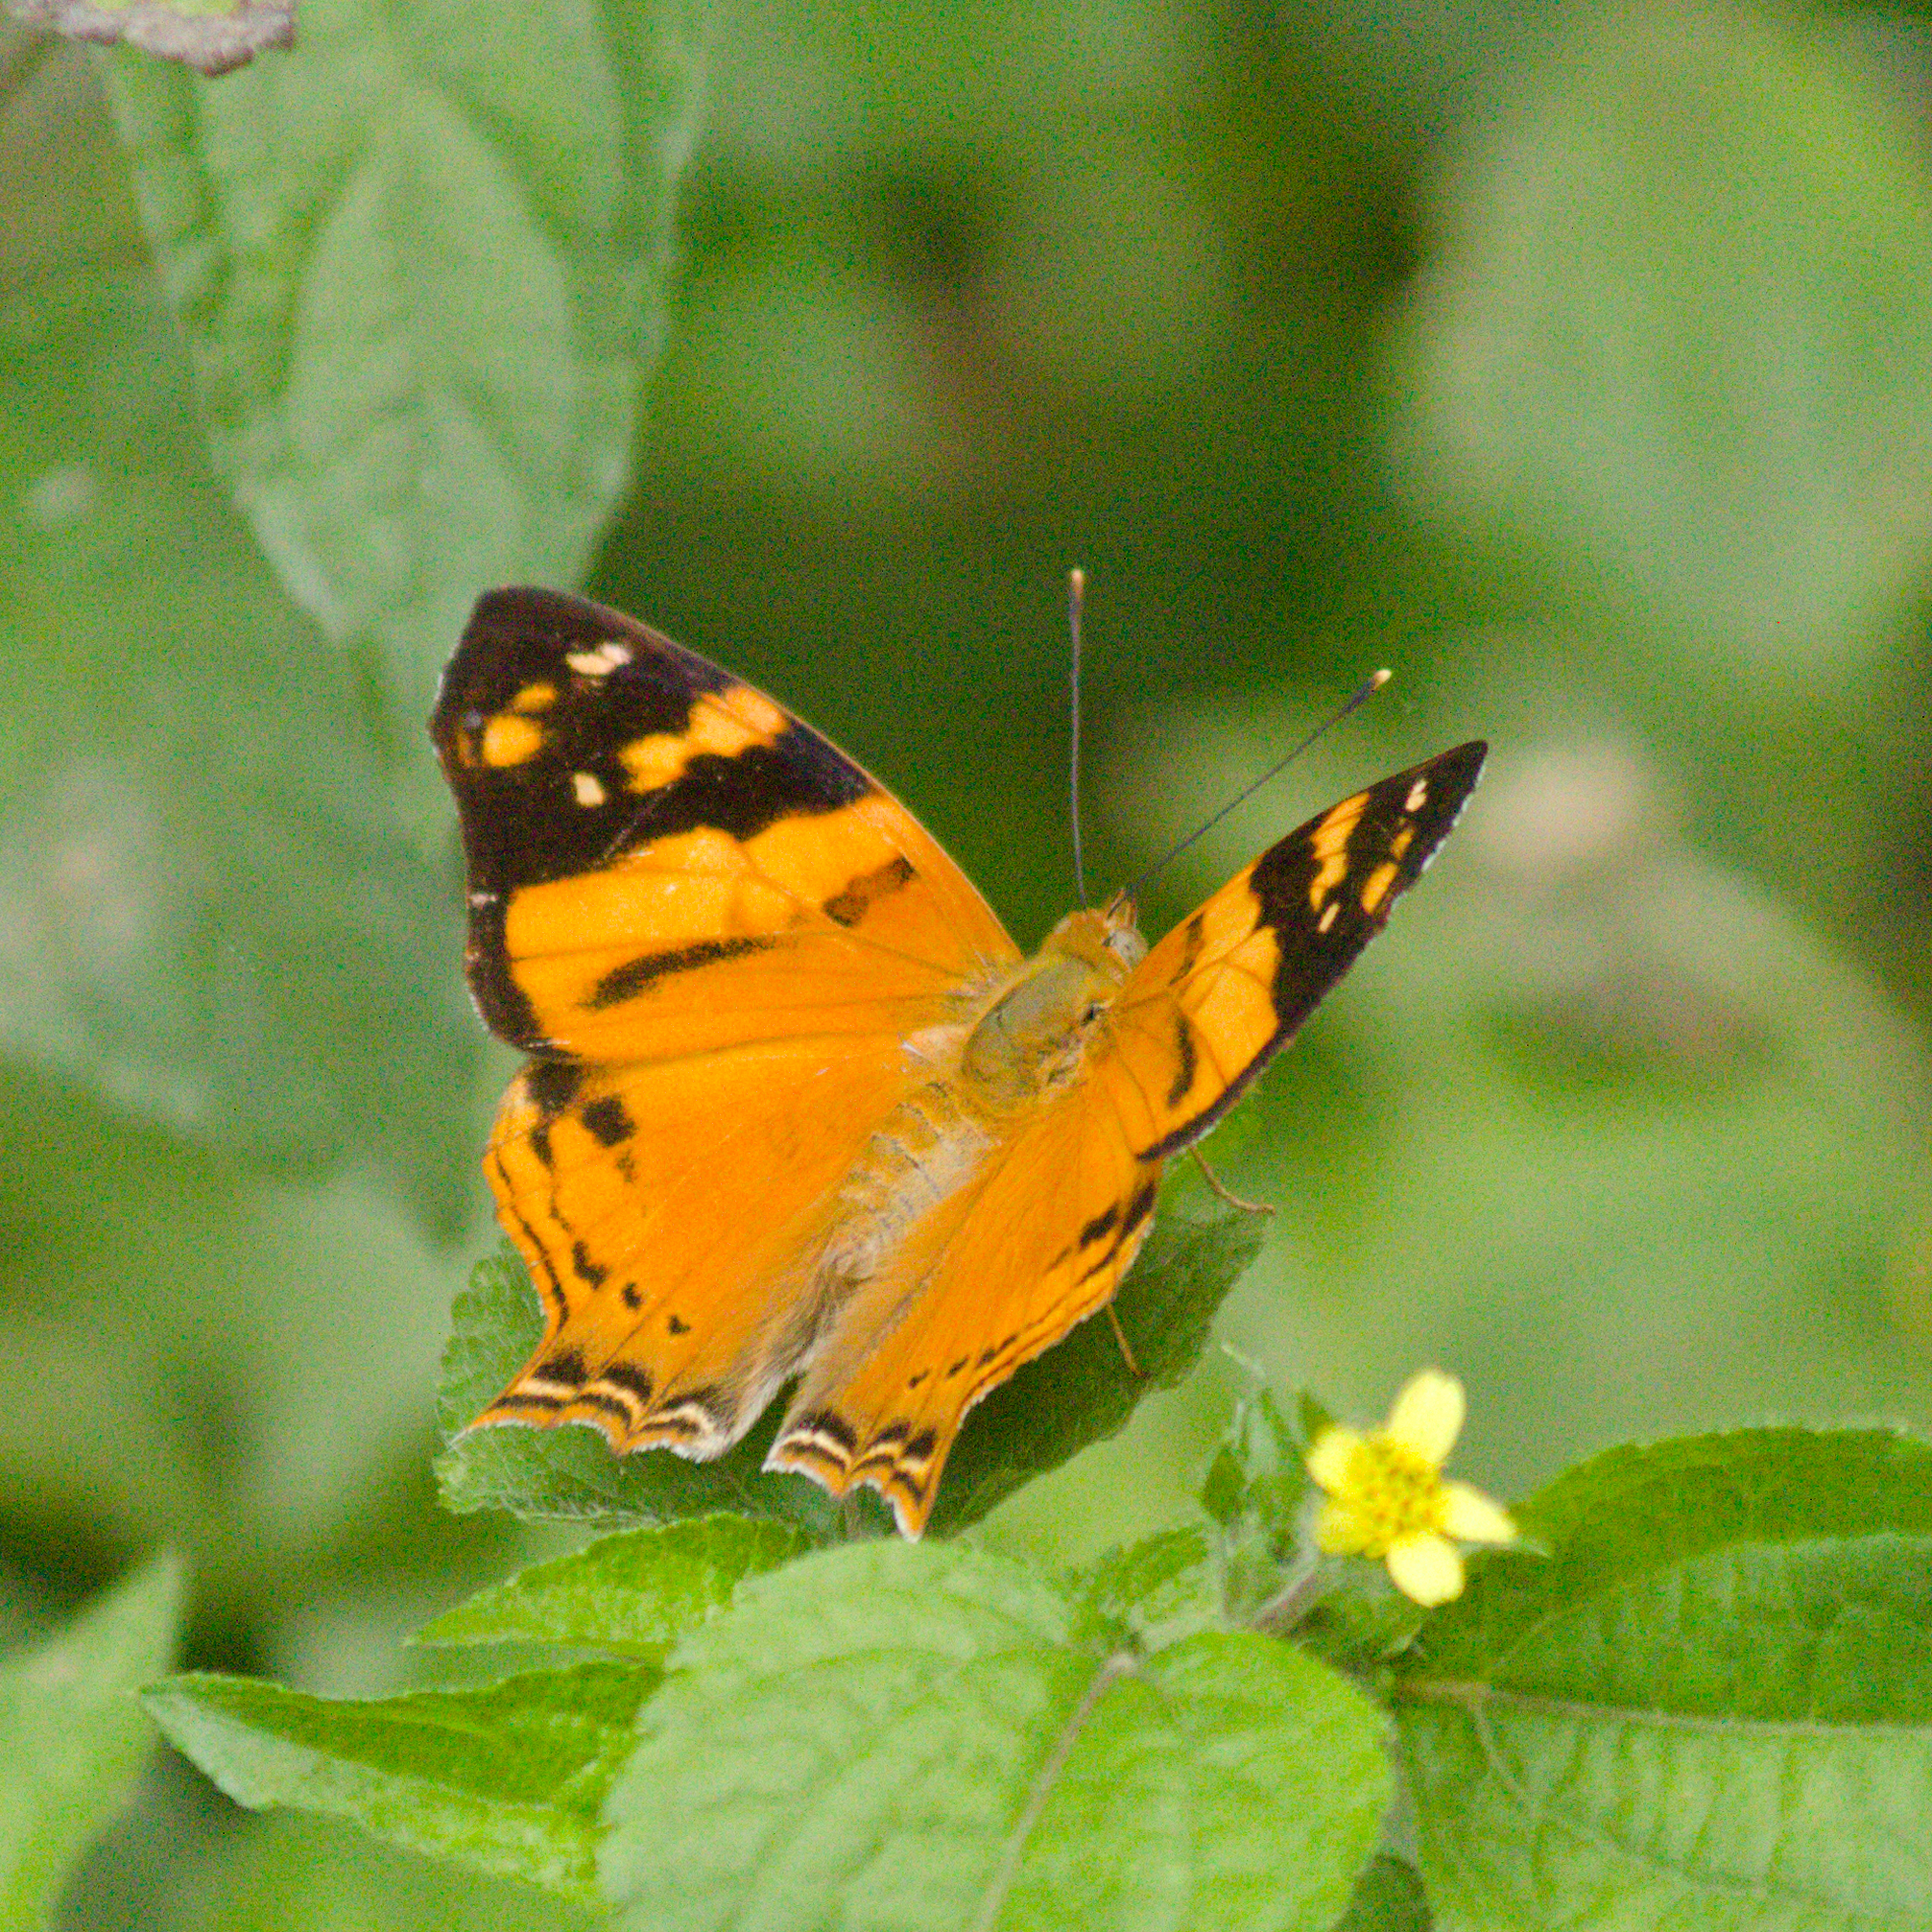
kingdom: Animalia
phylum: Arthropoda
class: Insecta
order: Lepidoptera
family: Nymphalidae
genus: Hypanartia
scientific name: Hypanartia lethe
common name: Orange mapwing
